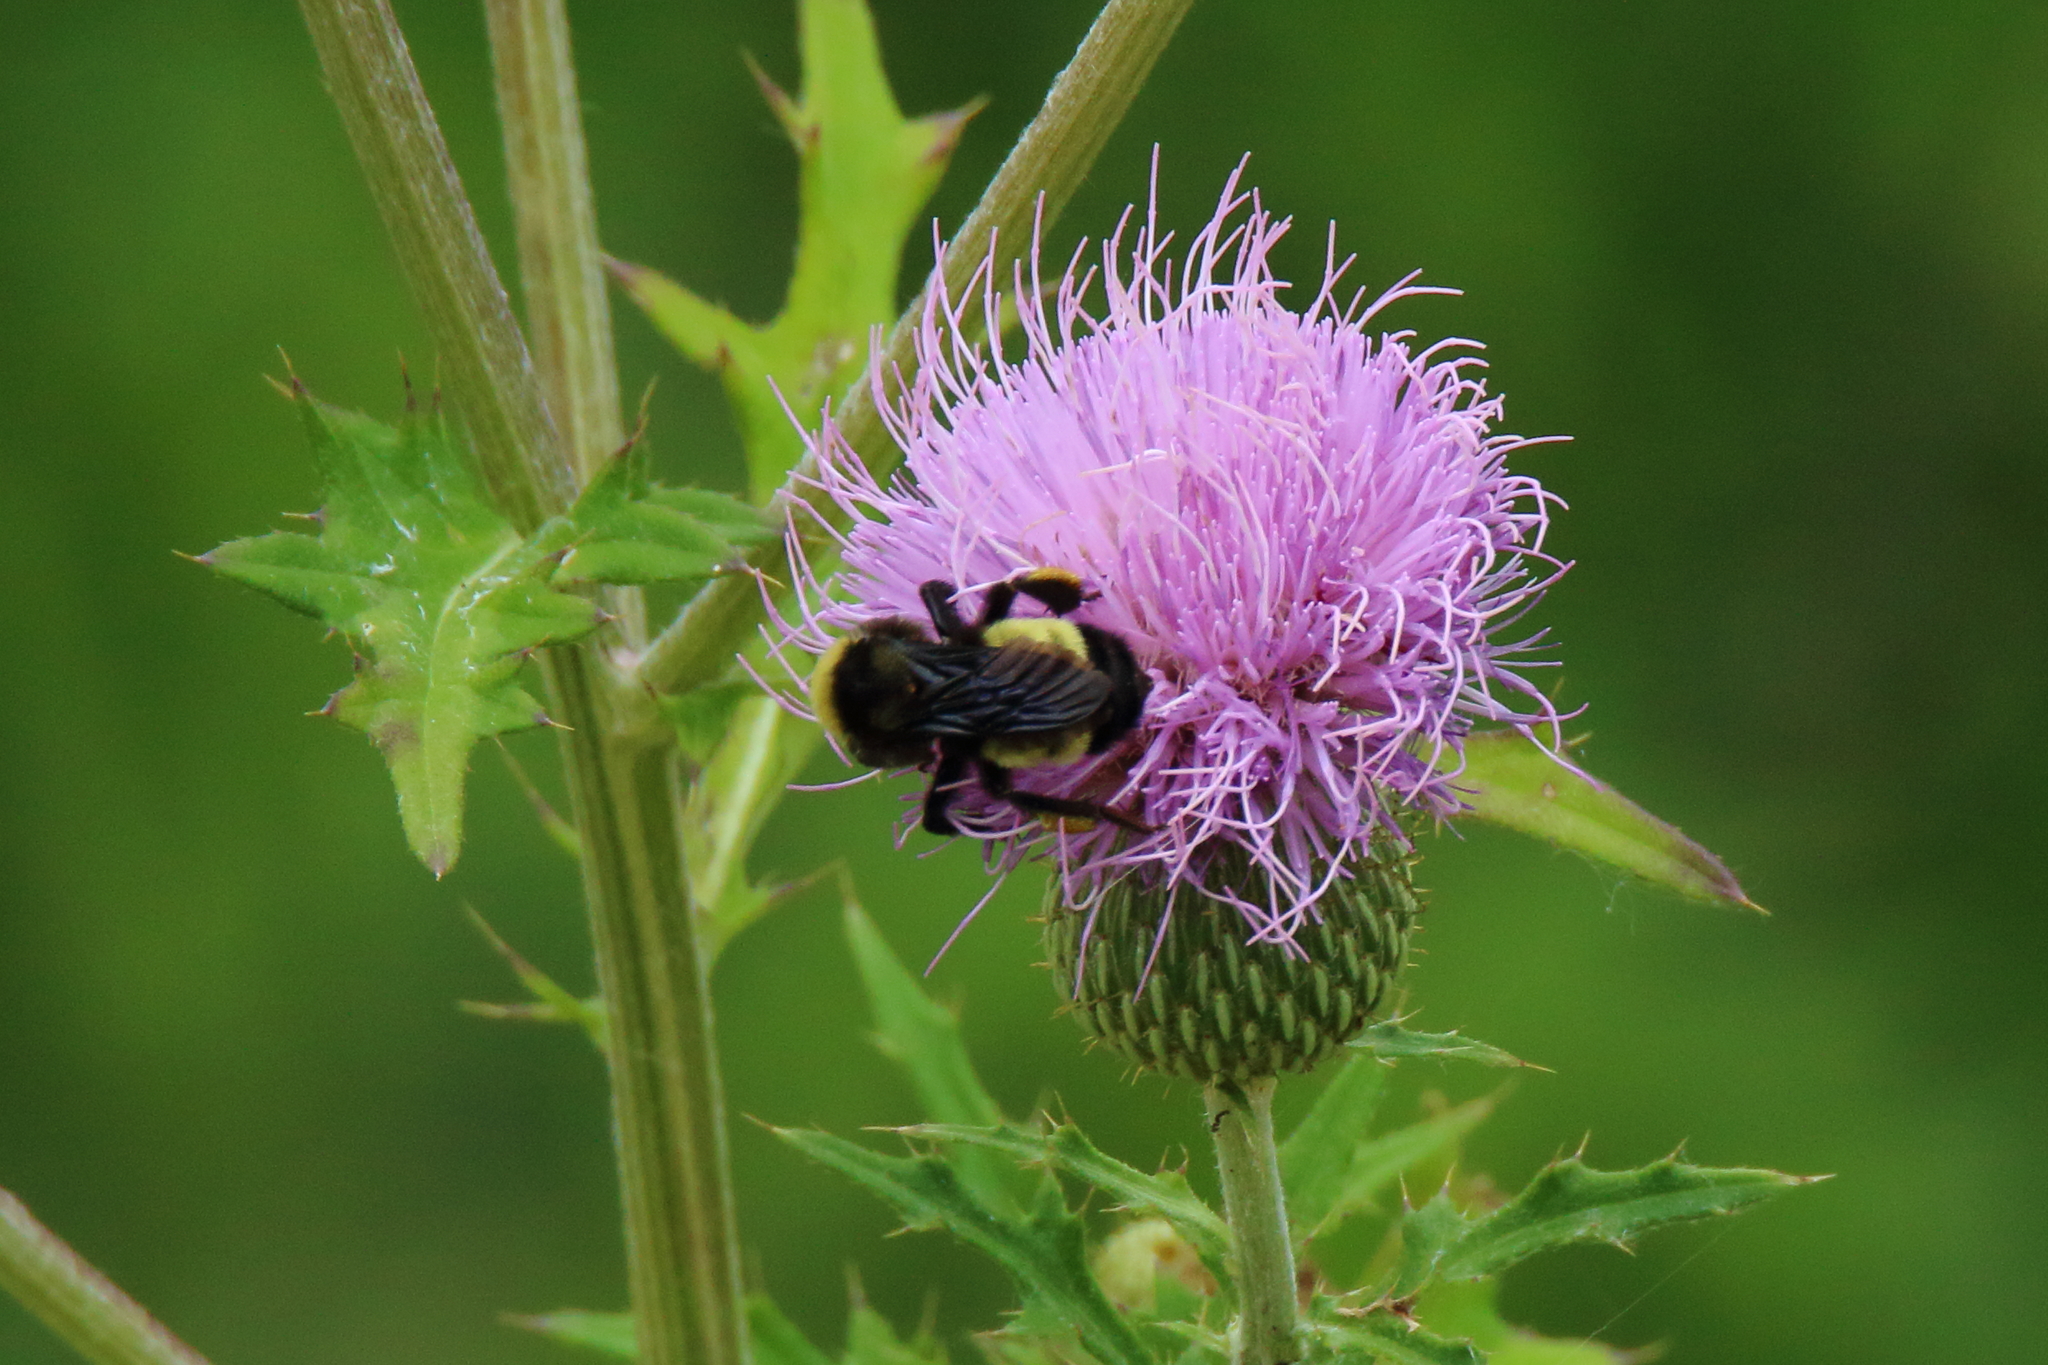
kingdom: Animalia
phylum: Arthropoda
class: Insecta
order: Hymenoptera
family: Apidae
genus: Bombus
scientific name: Bombus pensylvanicus
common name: Bumble bee
